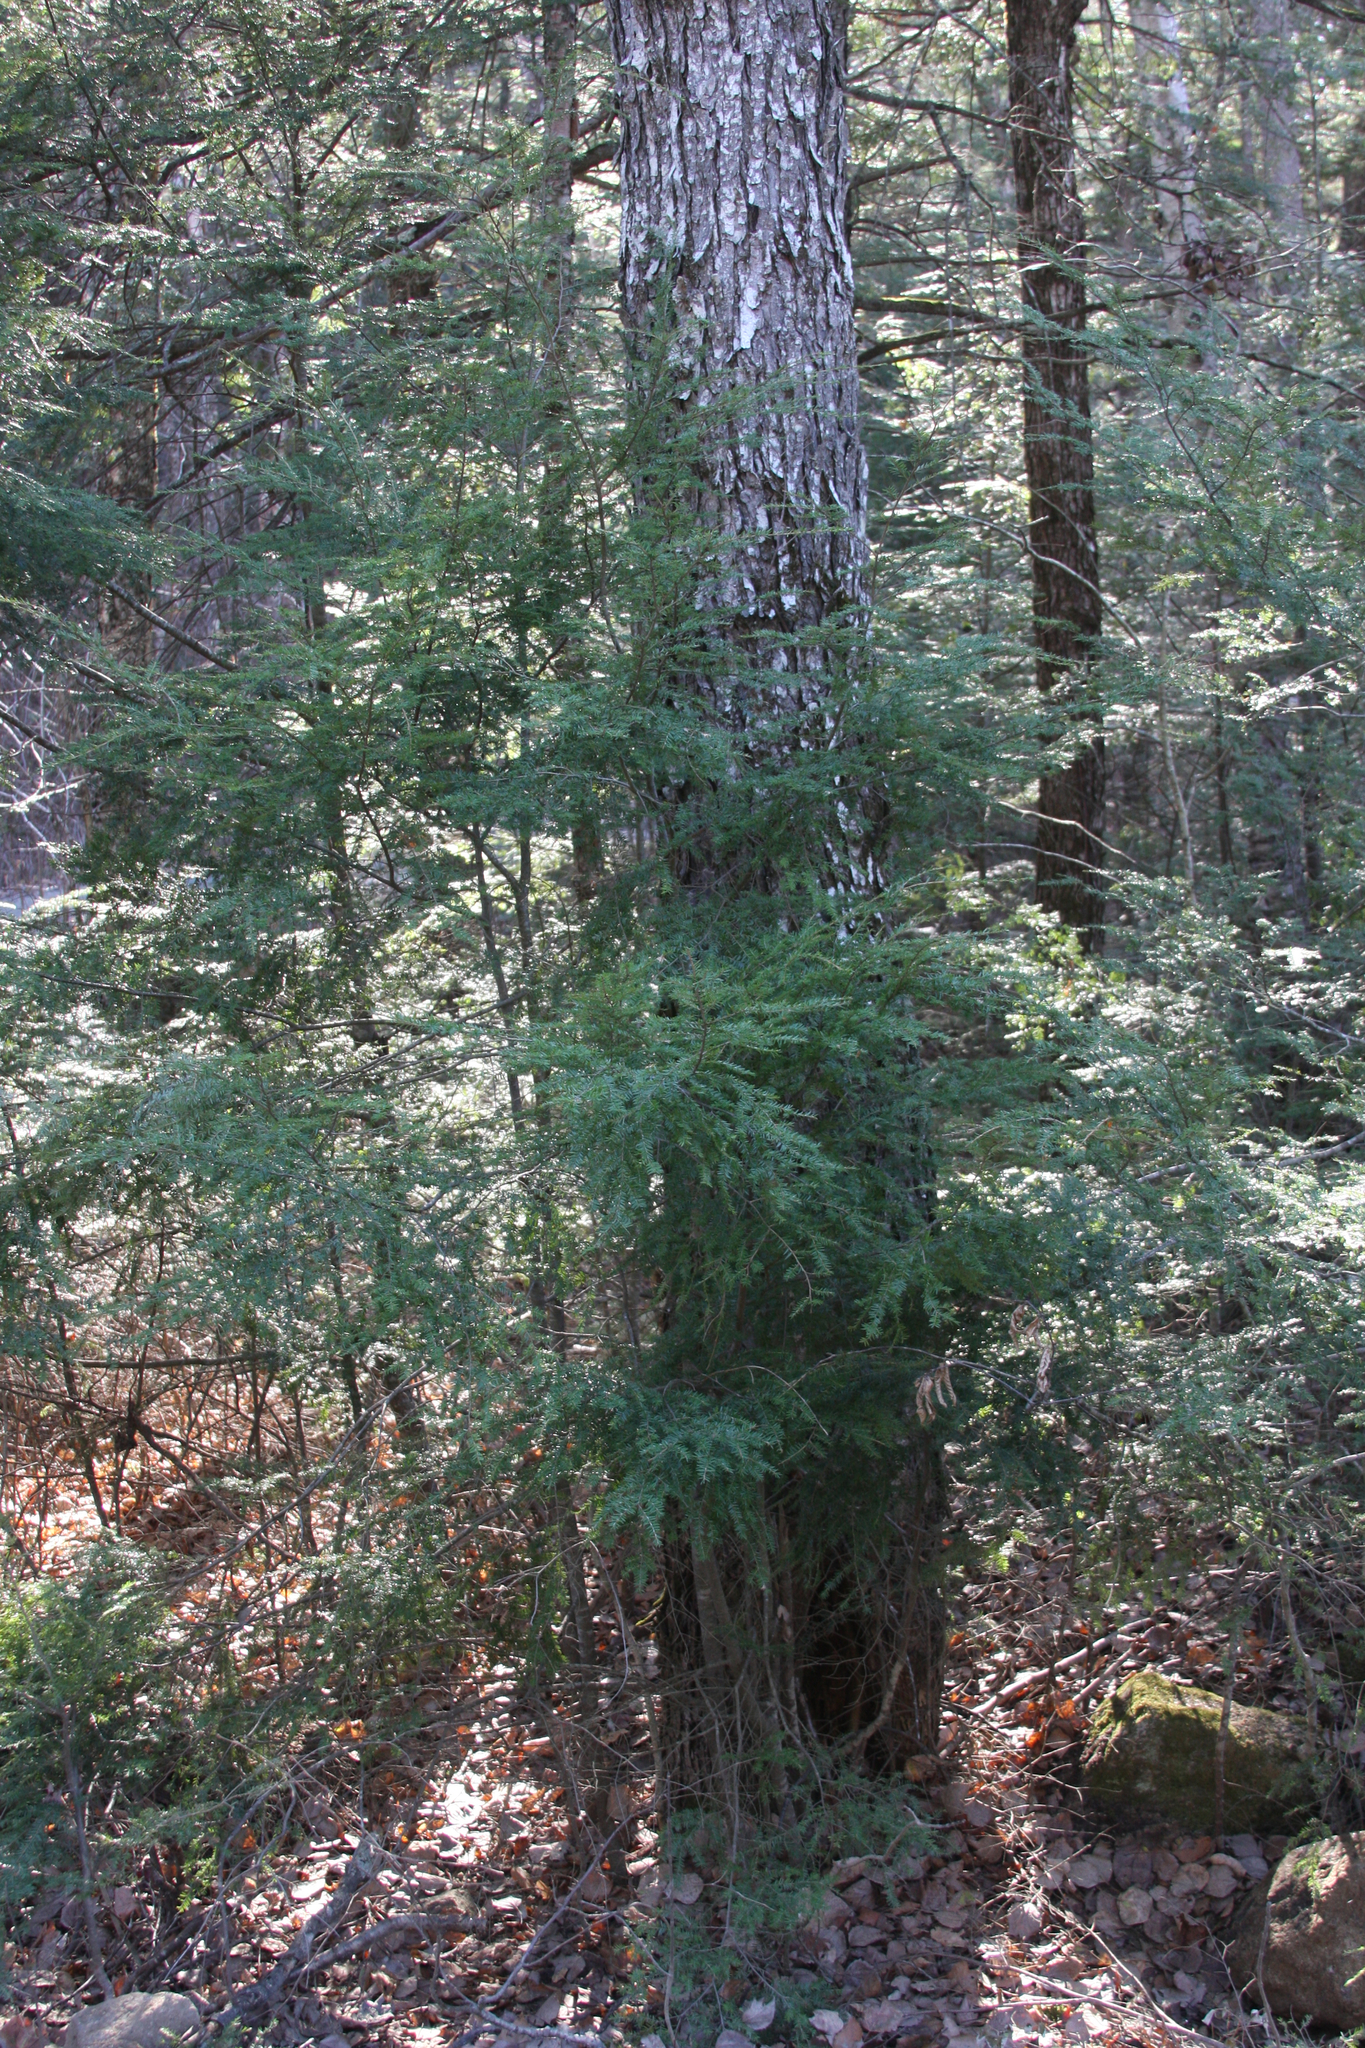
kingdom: Plantae
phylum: Tracheophyta
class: Pinopsida
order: Pinales
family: Pinaceae
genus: Tsuga
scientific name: Tsuga canadensis
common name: Eastern hemlock
